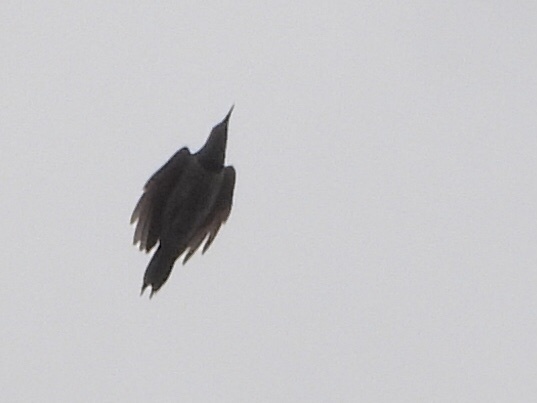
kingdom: Animalia
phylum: Chordata
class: Aves
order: Piciformes
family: Picidae
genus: Colaptes
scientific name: Colaptes auratus
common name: Northern flicker
